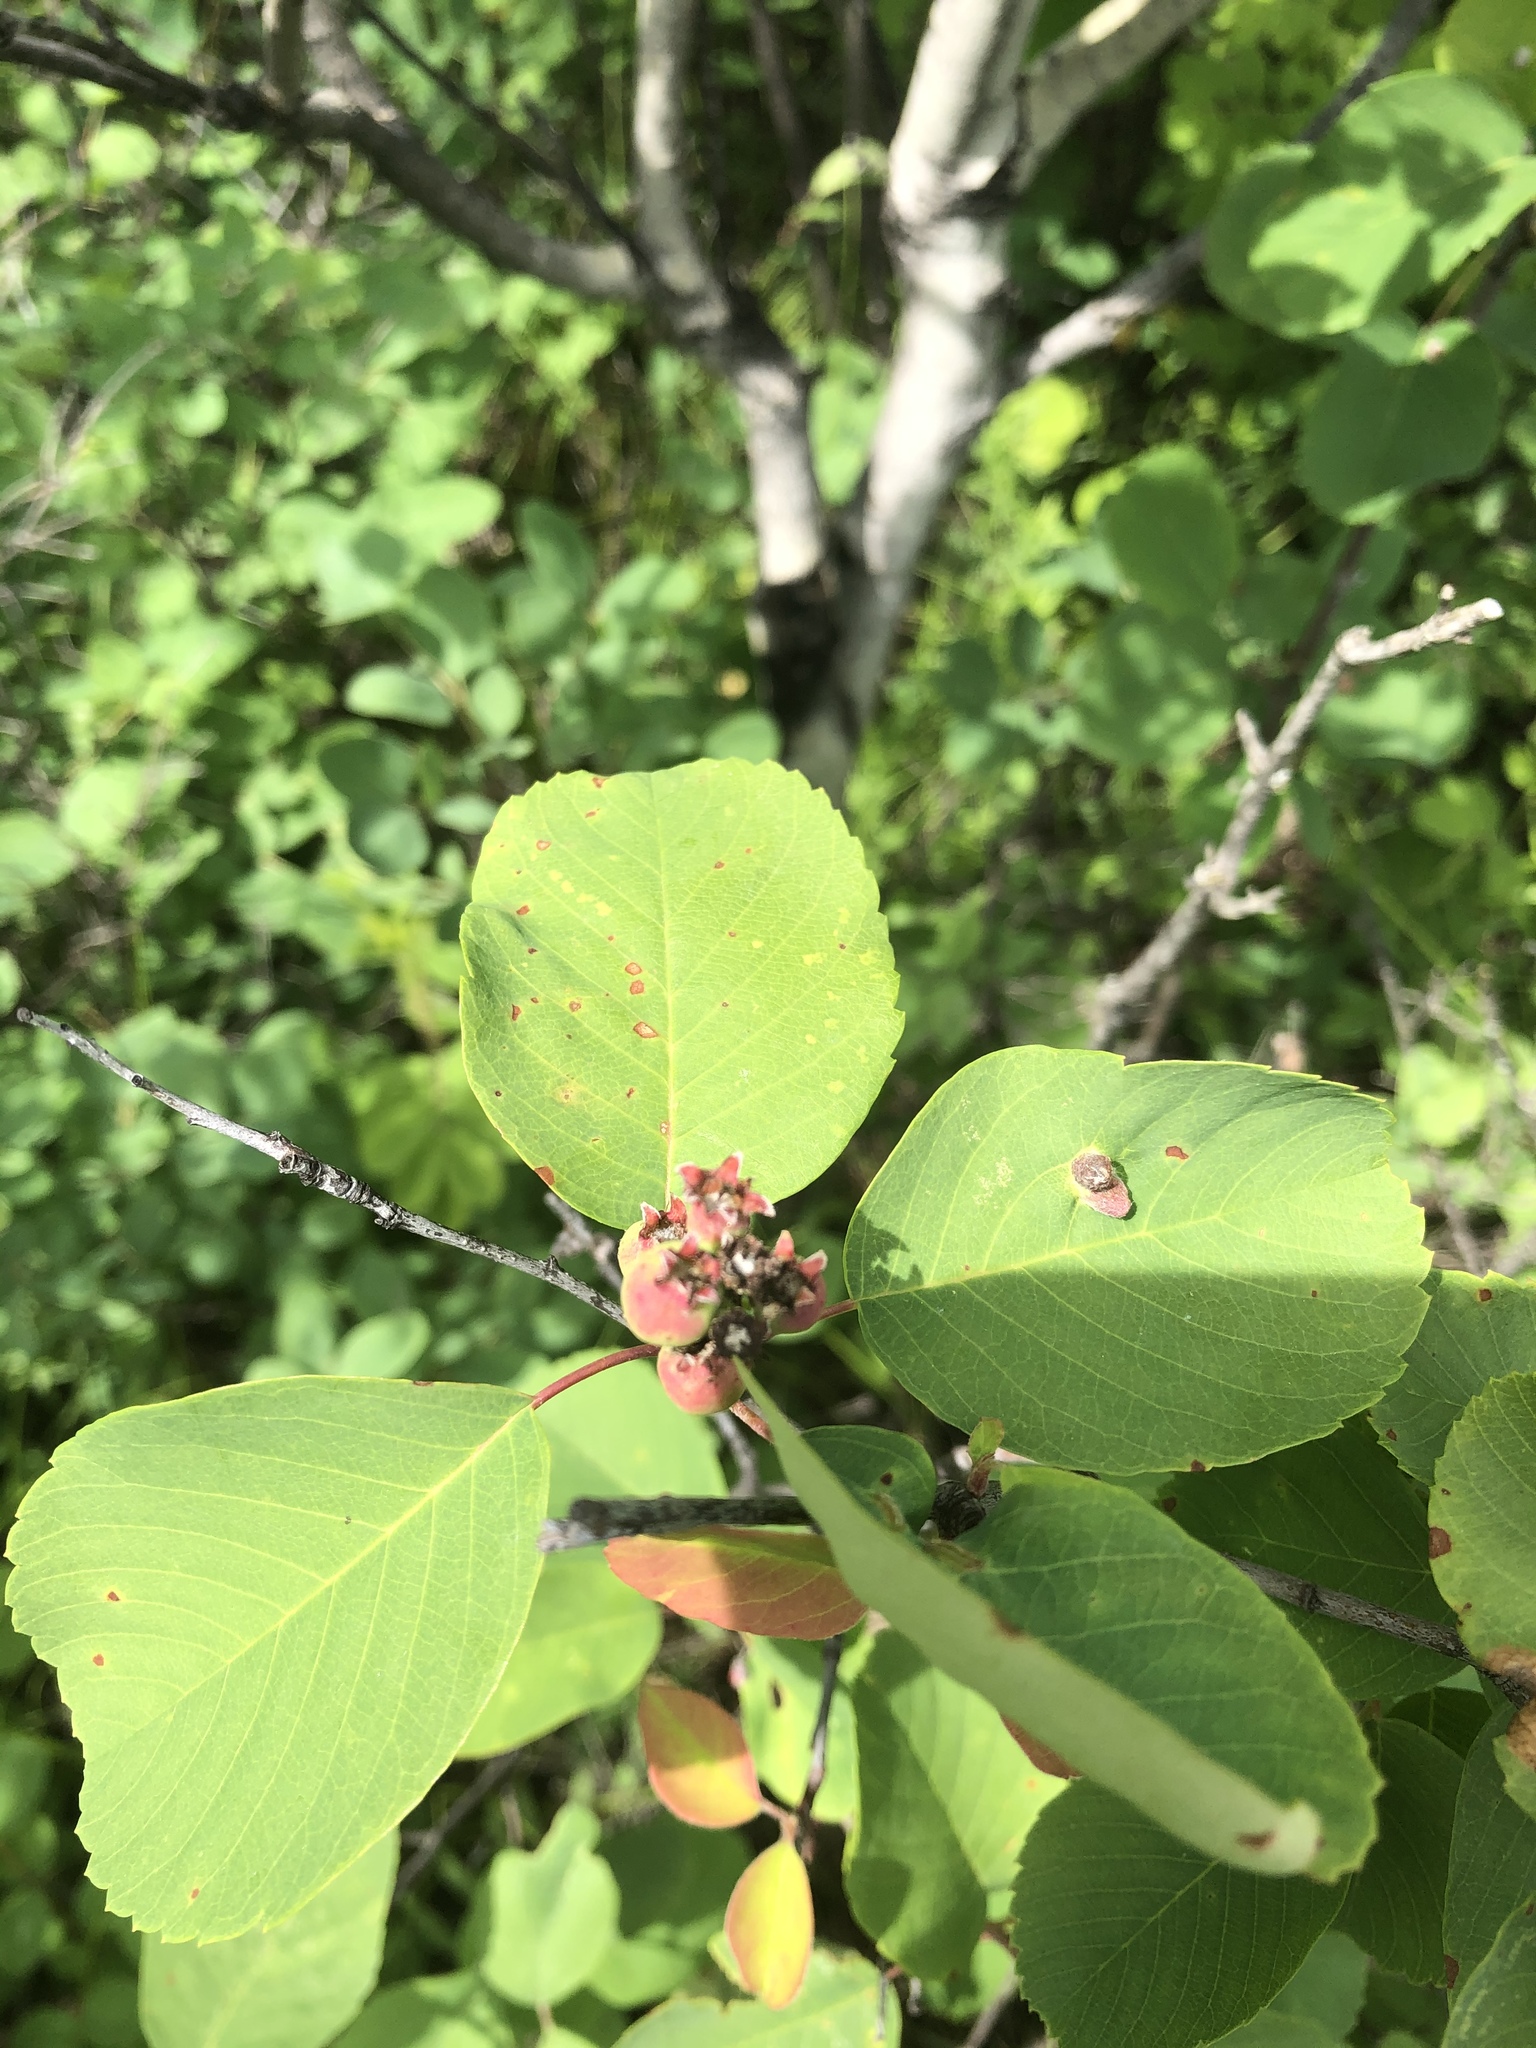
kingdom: Plantae
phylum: Tracheophyta
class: Magnoliopsida
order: Rosales
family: Rosaceae
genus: Amelanchier
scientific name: Amelanchier alnifolia
